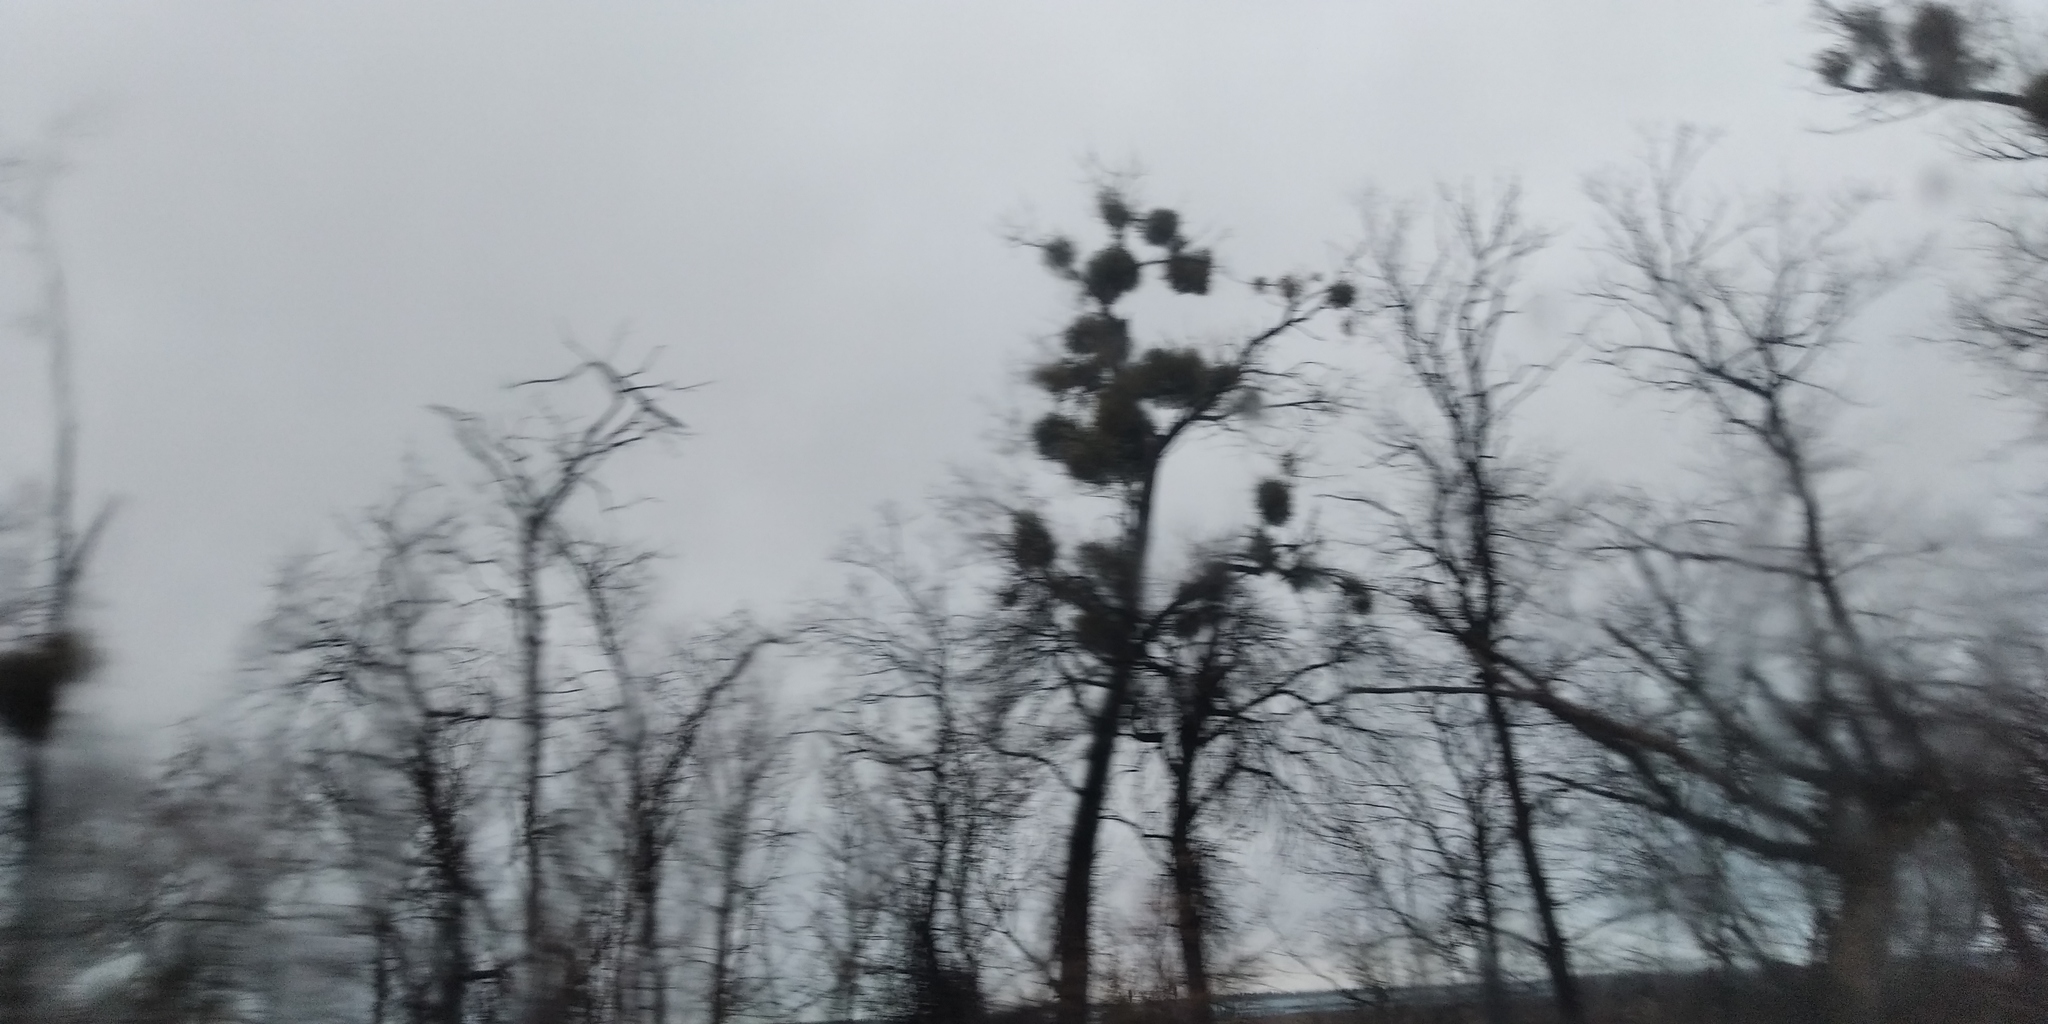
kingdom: Plantae
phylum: Tracheophyta
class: Magnoliopsida
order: Santalales
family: Viscaceae
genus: Viscum
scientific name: Viscum album
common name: Mistletoe
